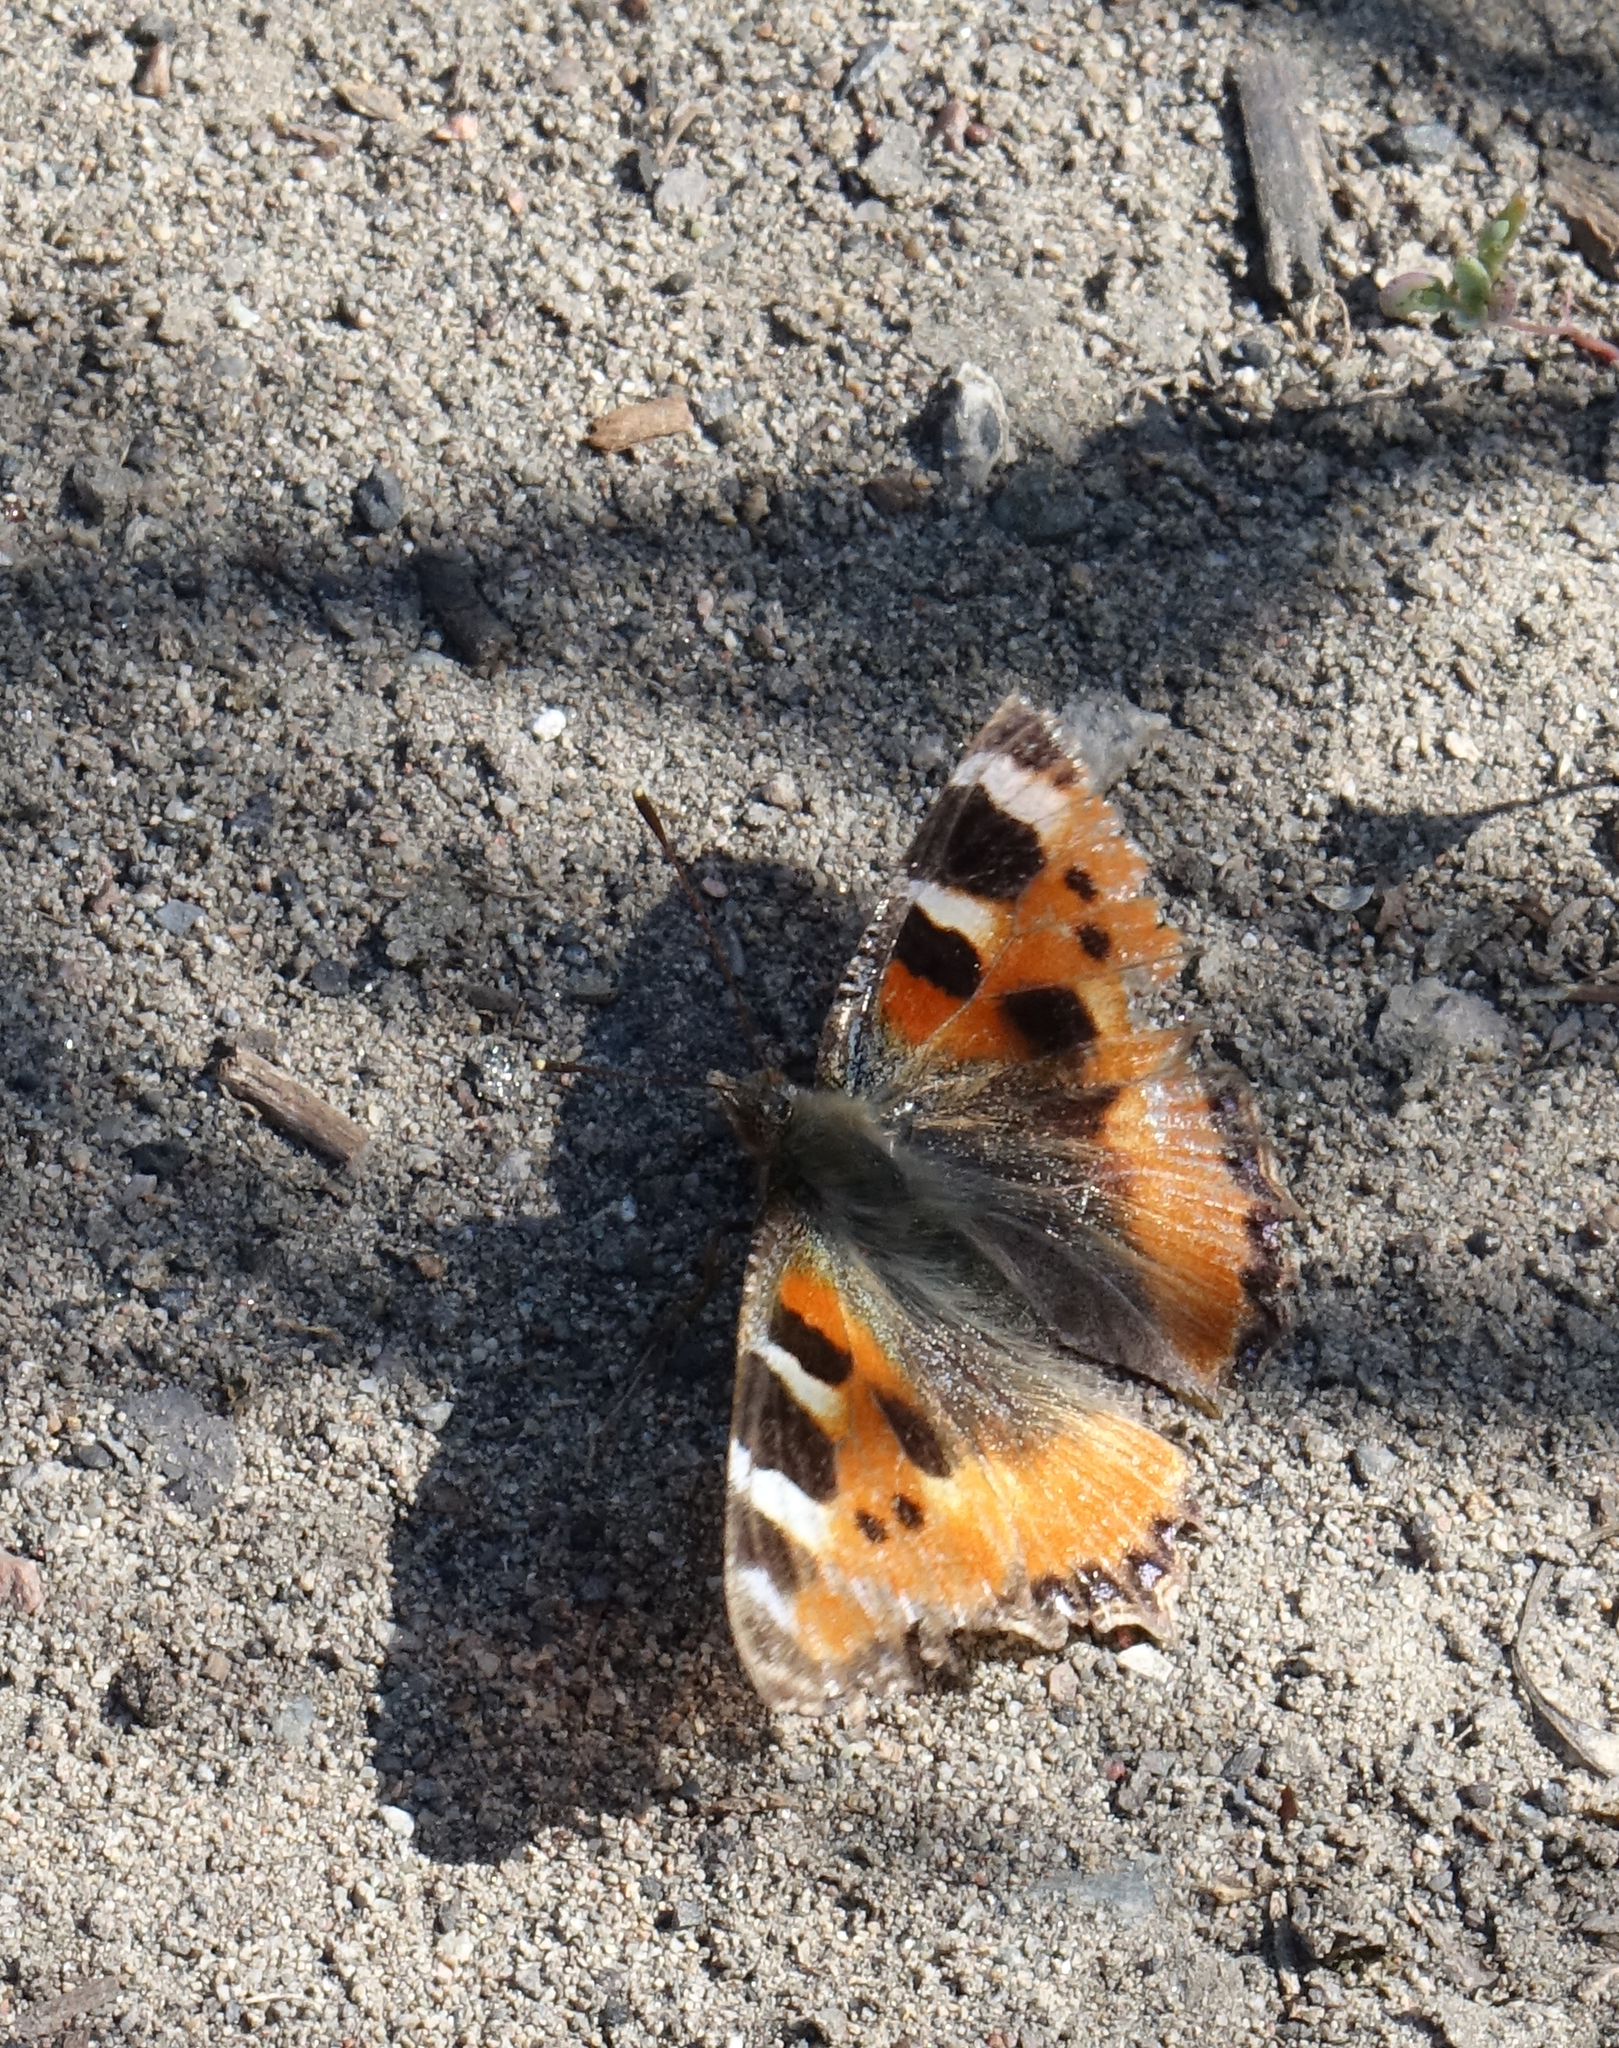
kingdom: Animalia
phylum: Arthropoda
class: Insecta
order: Lepidoptera
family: Nymphalidae
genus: Aglais
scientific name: Aglais urticae
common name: Small tortoiseshell
